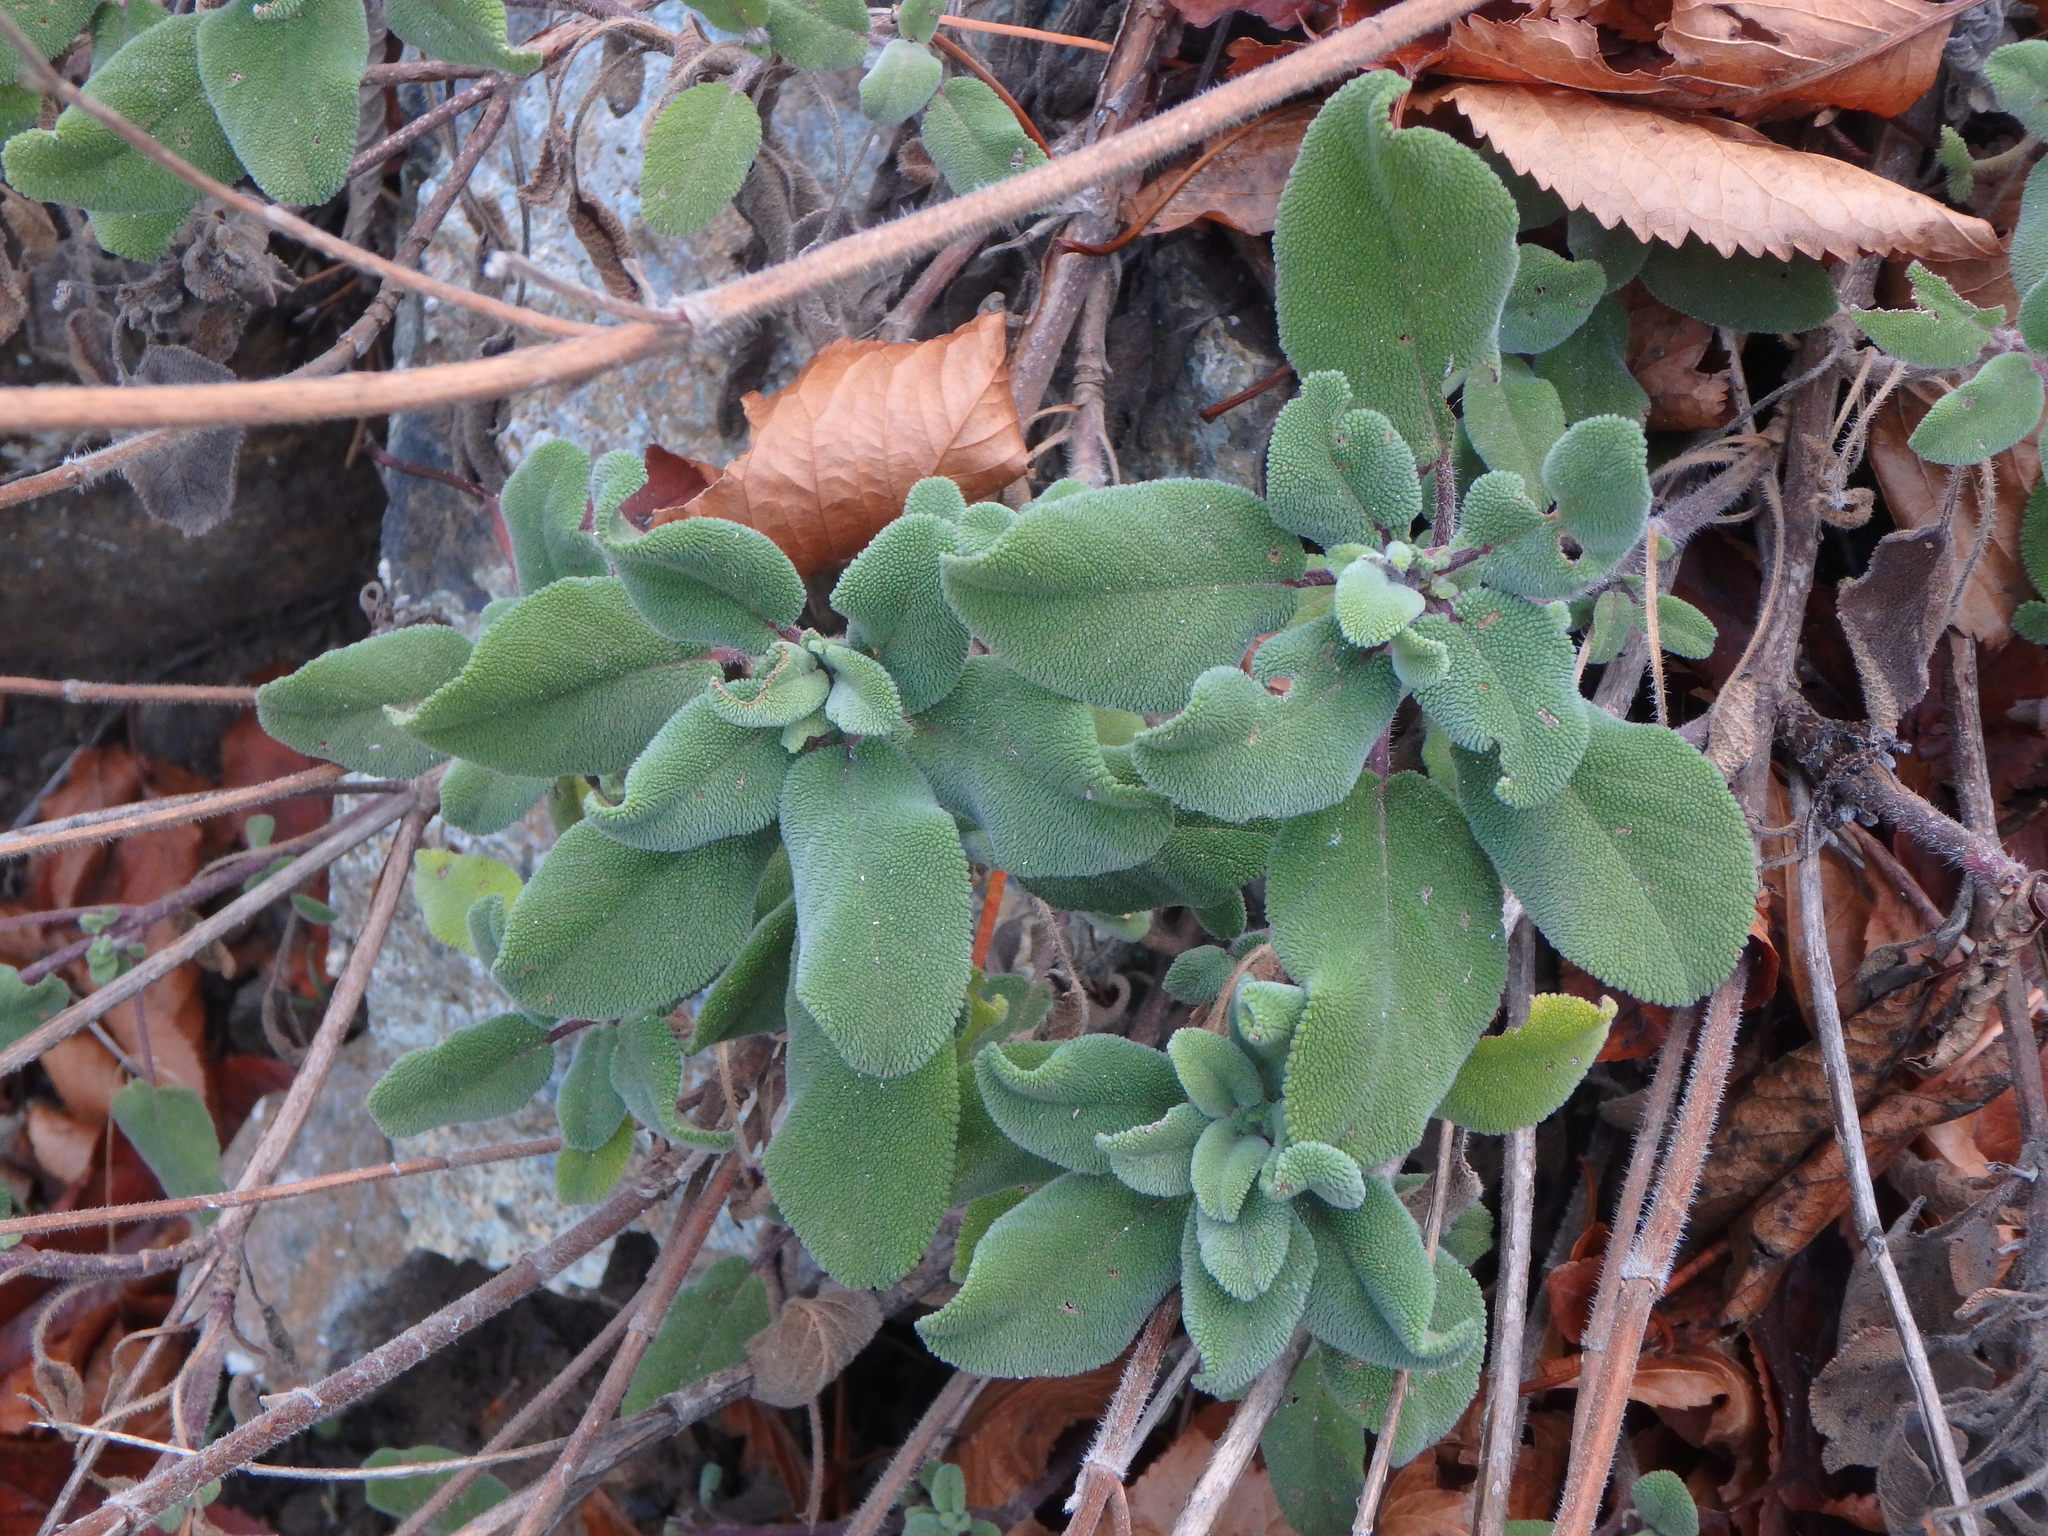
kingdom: Plantae
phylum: Tracheophyta
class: Magnoliopsida
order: Lamiales
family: Lamiaceae
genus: Salvia
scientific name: Salvia willeana
